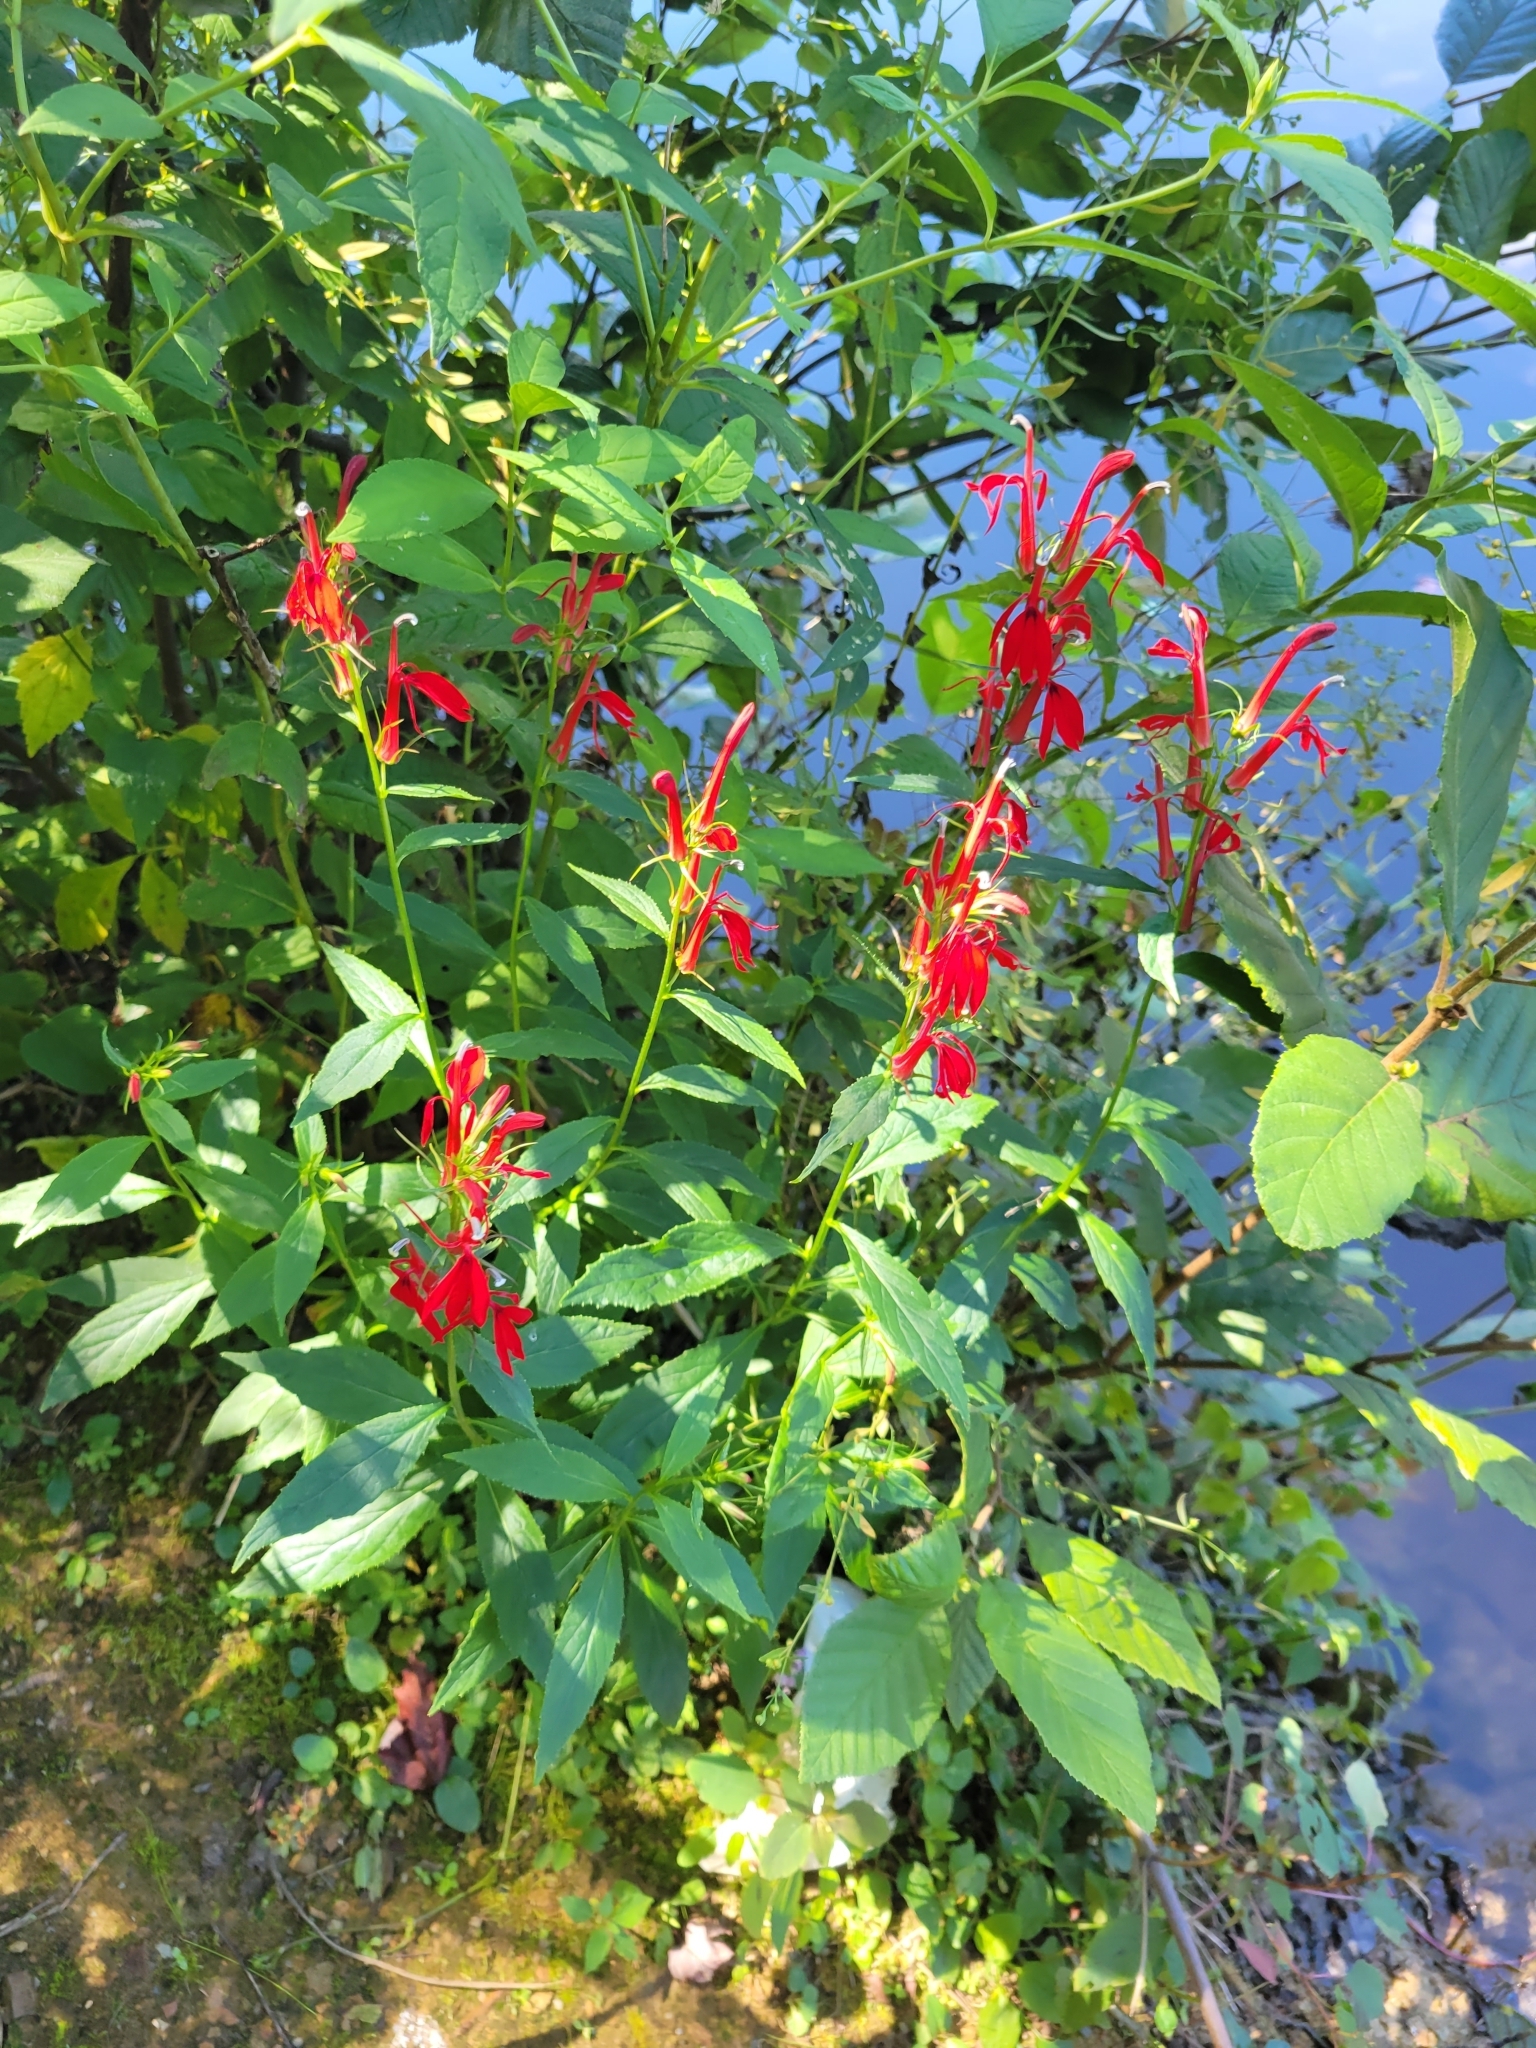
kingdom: Plantae
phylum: Tracheophyta
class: Magnoliopsida
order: Asterales
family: Campanulaceae
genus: Lobelia
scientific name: Lobelia cardinalis
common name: Cardinal flower
